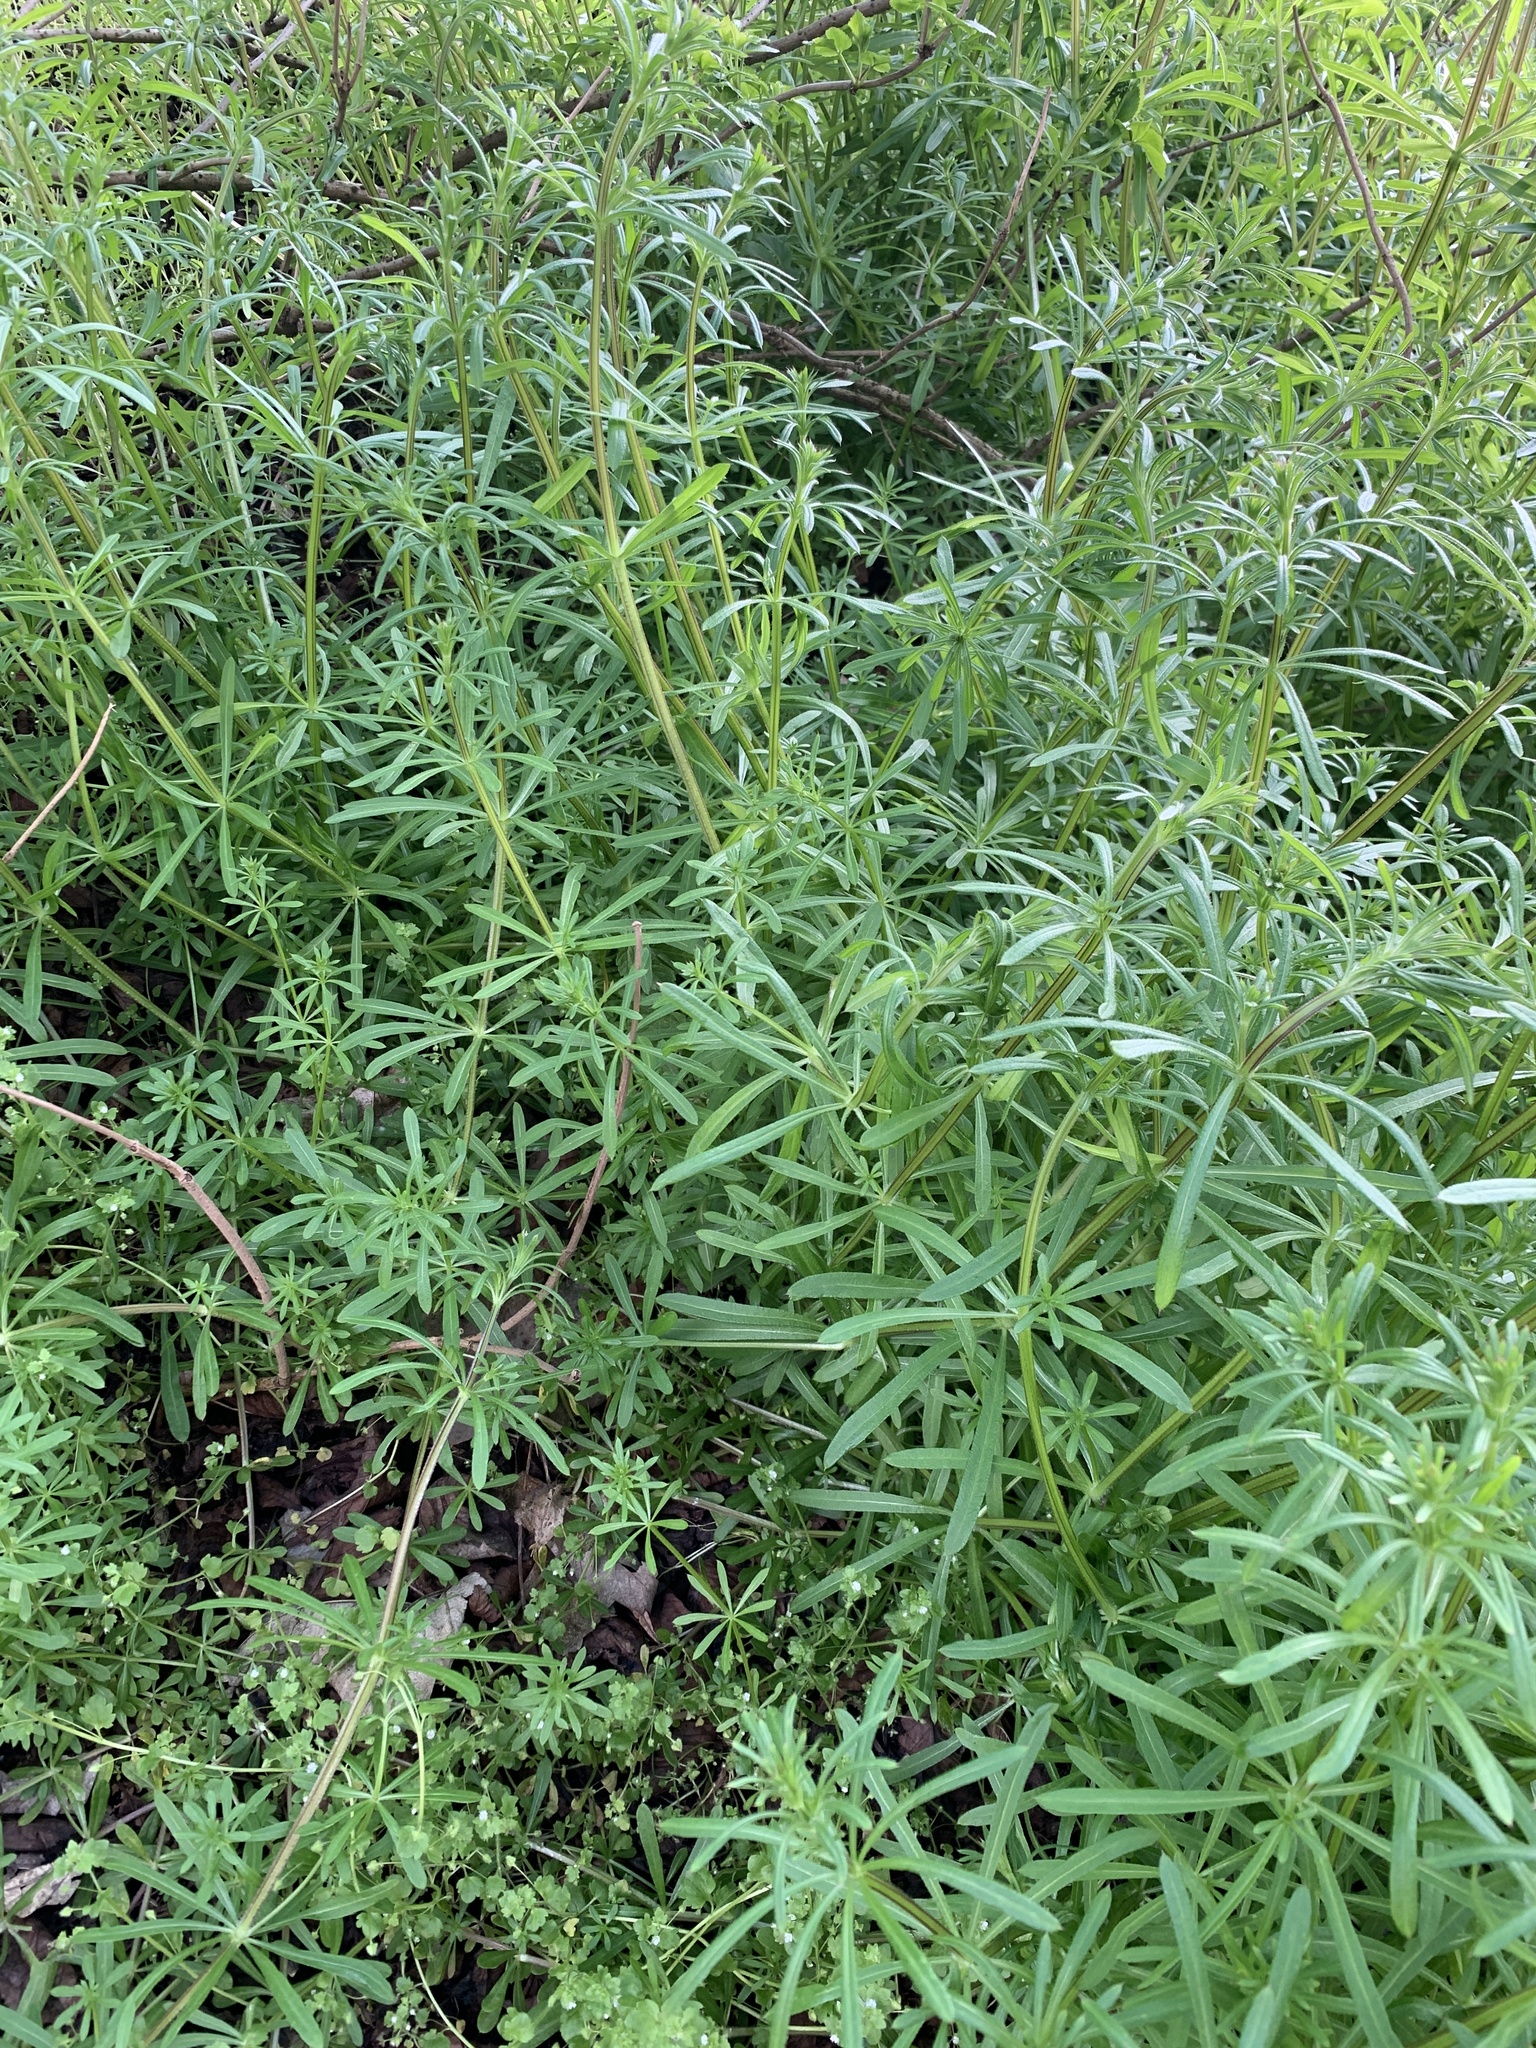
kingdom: Plantae
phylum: Tracheophyta
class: Magnoliopsida
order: Gentianales
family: Rubiaceae
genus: Galium
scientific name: Galium aparine
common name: Cleavers
